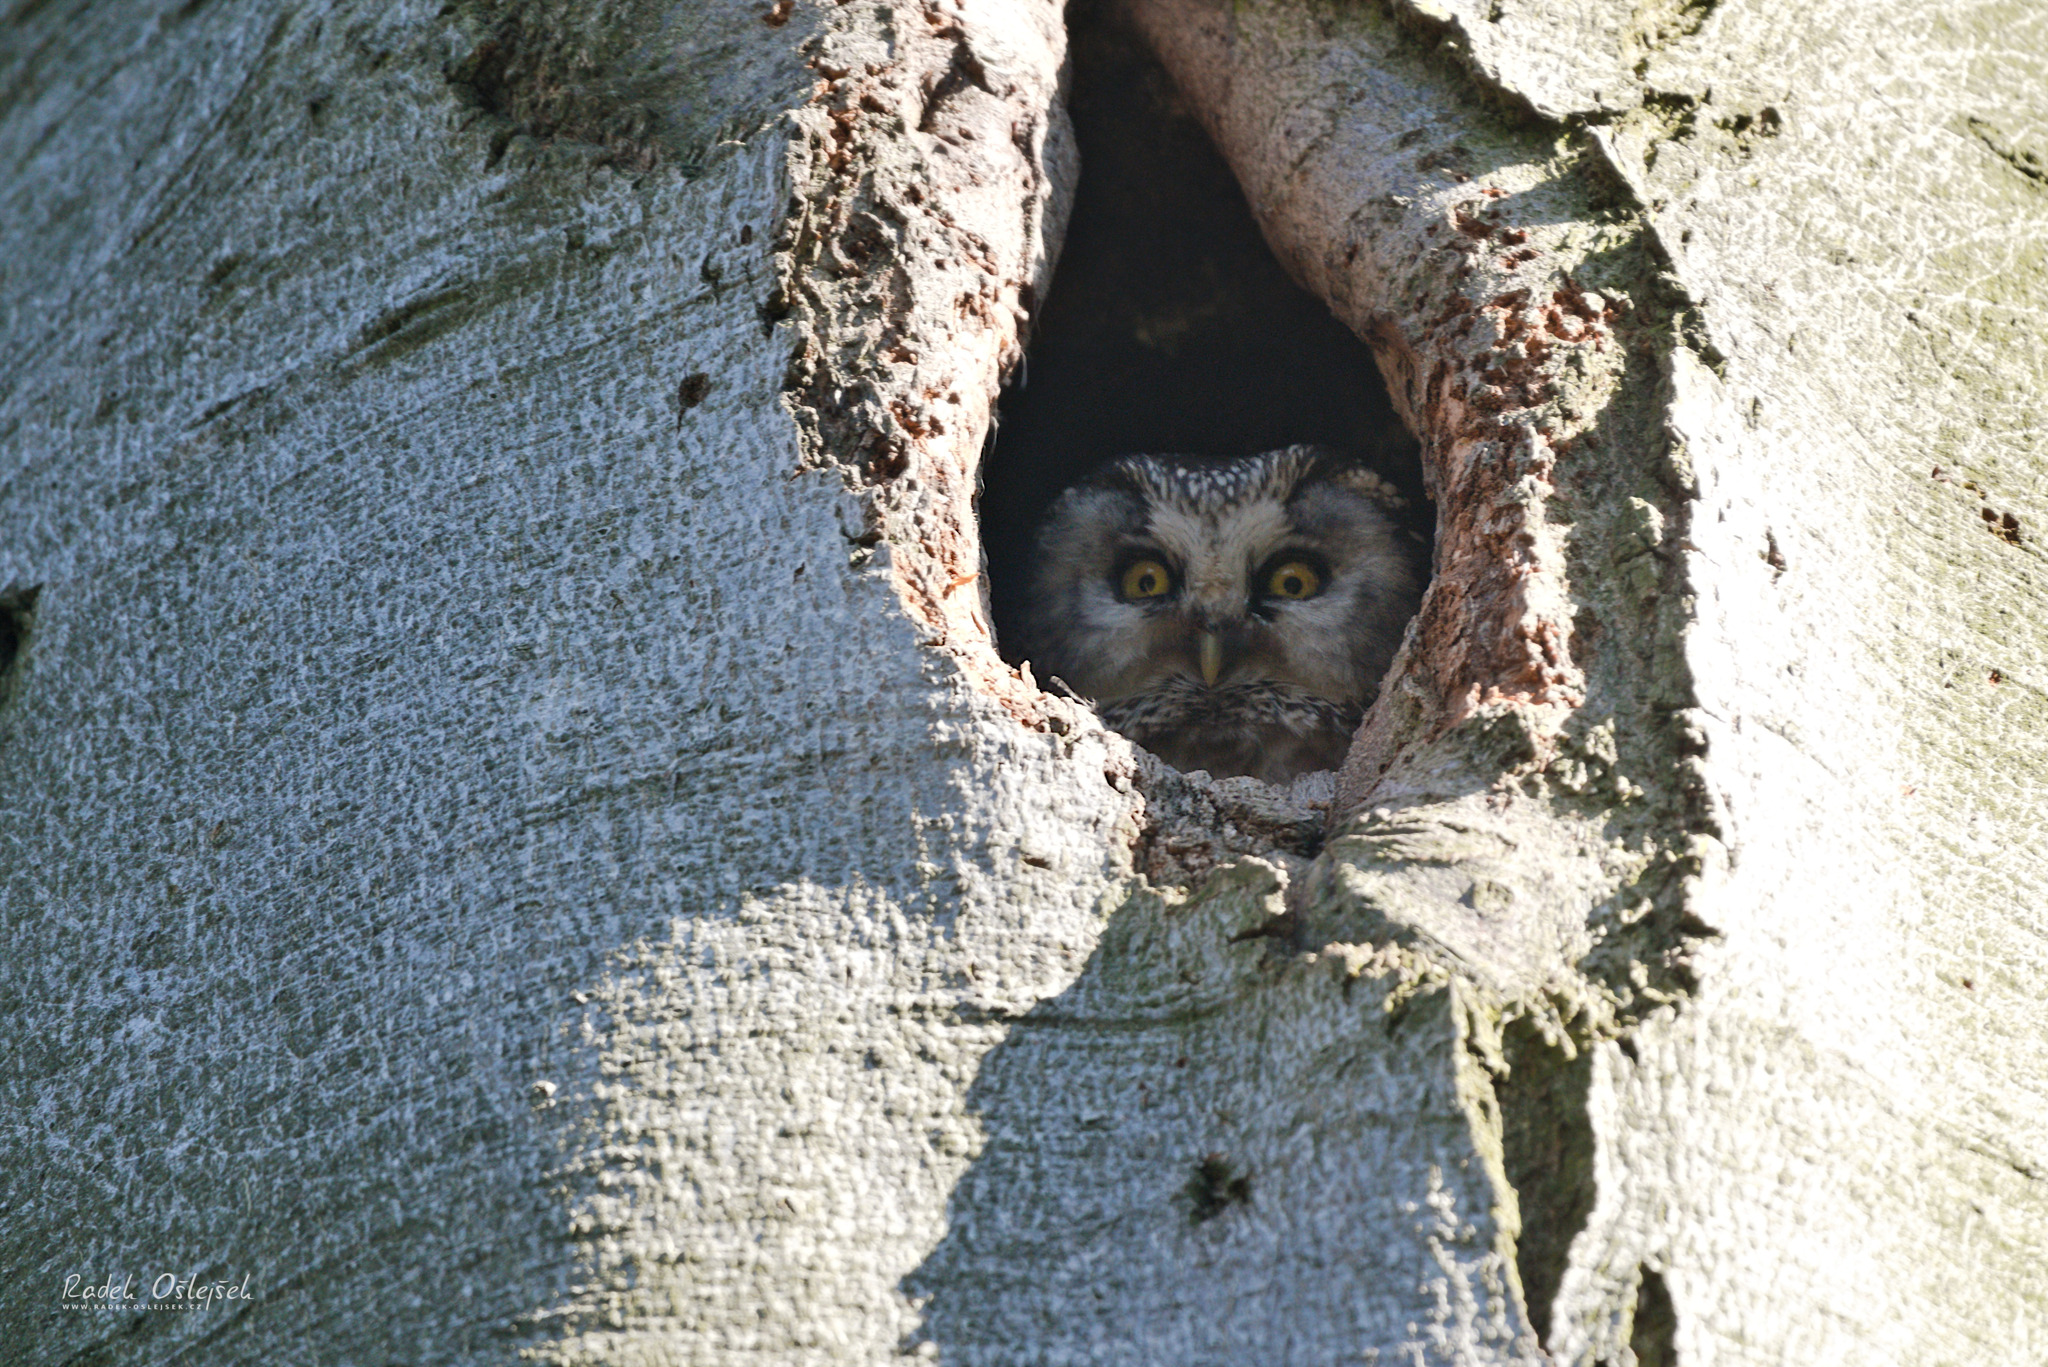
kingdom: Animalia
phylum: Chordata
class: Aves
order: Strigiformes
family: Strigidae
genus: Aegolius
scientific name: Aegolius funereus
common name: Boreal owl
